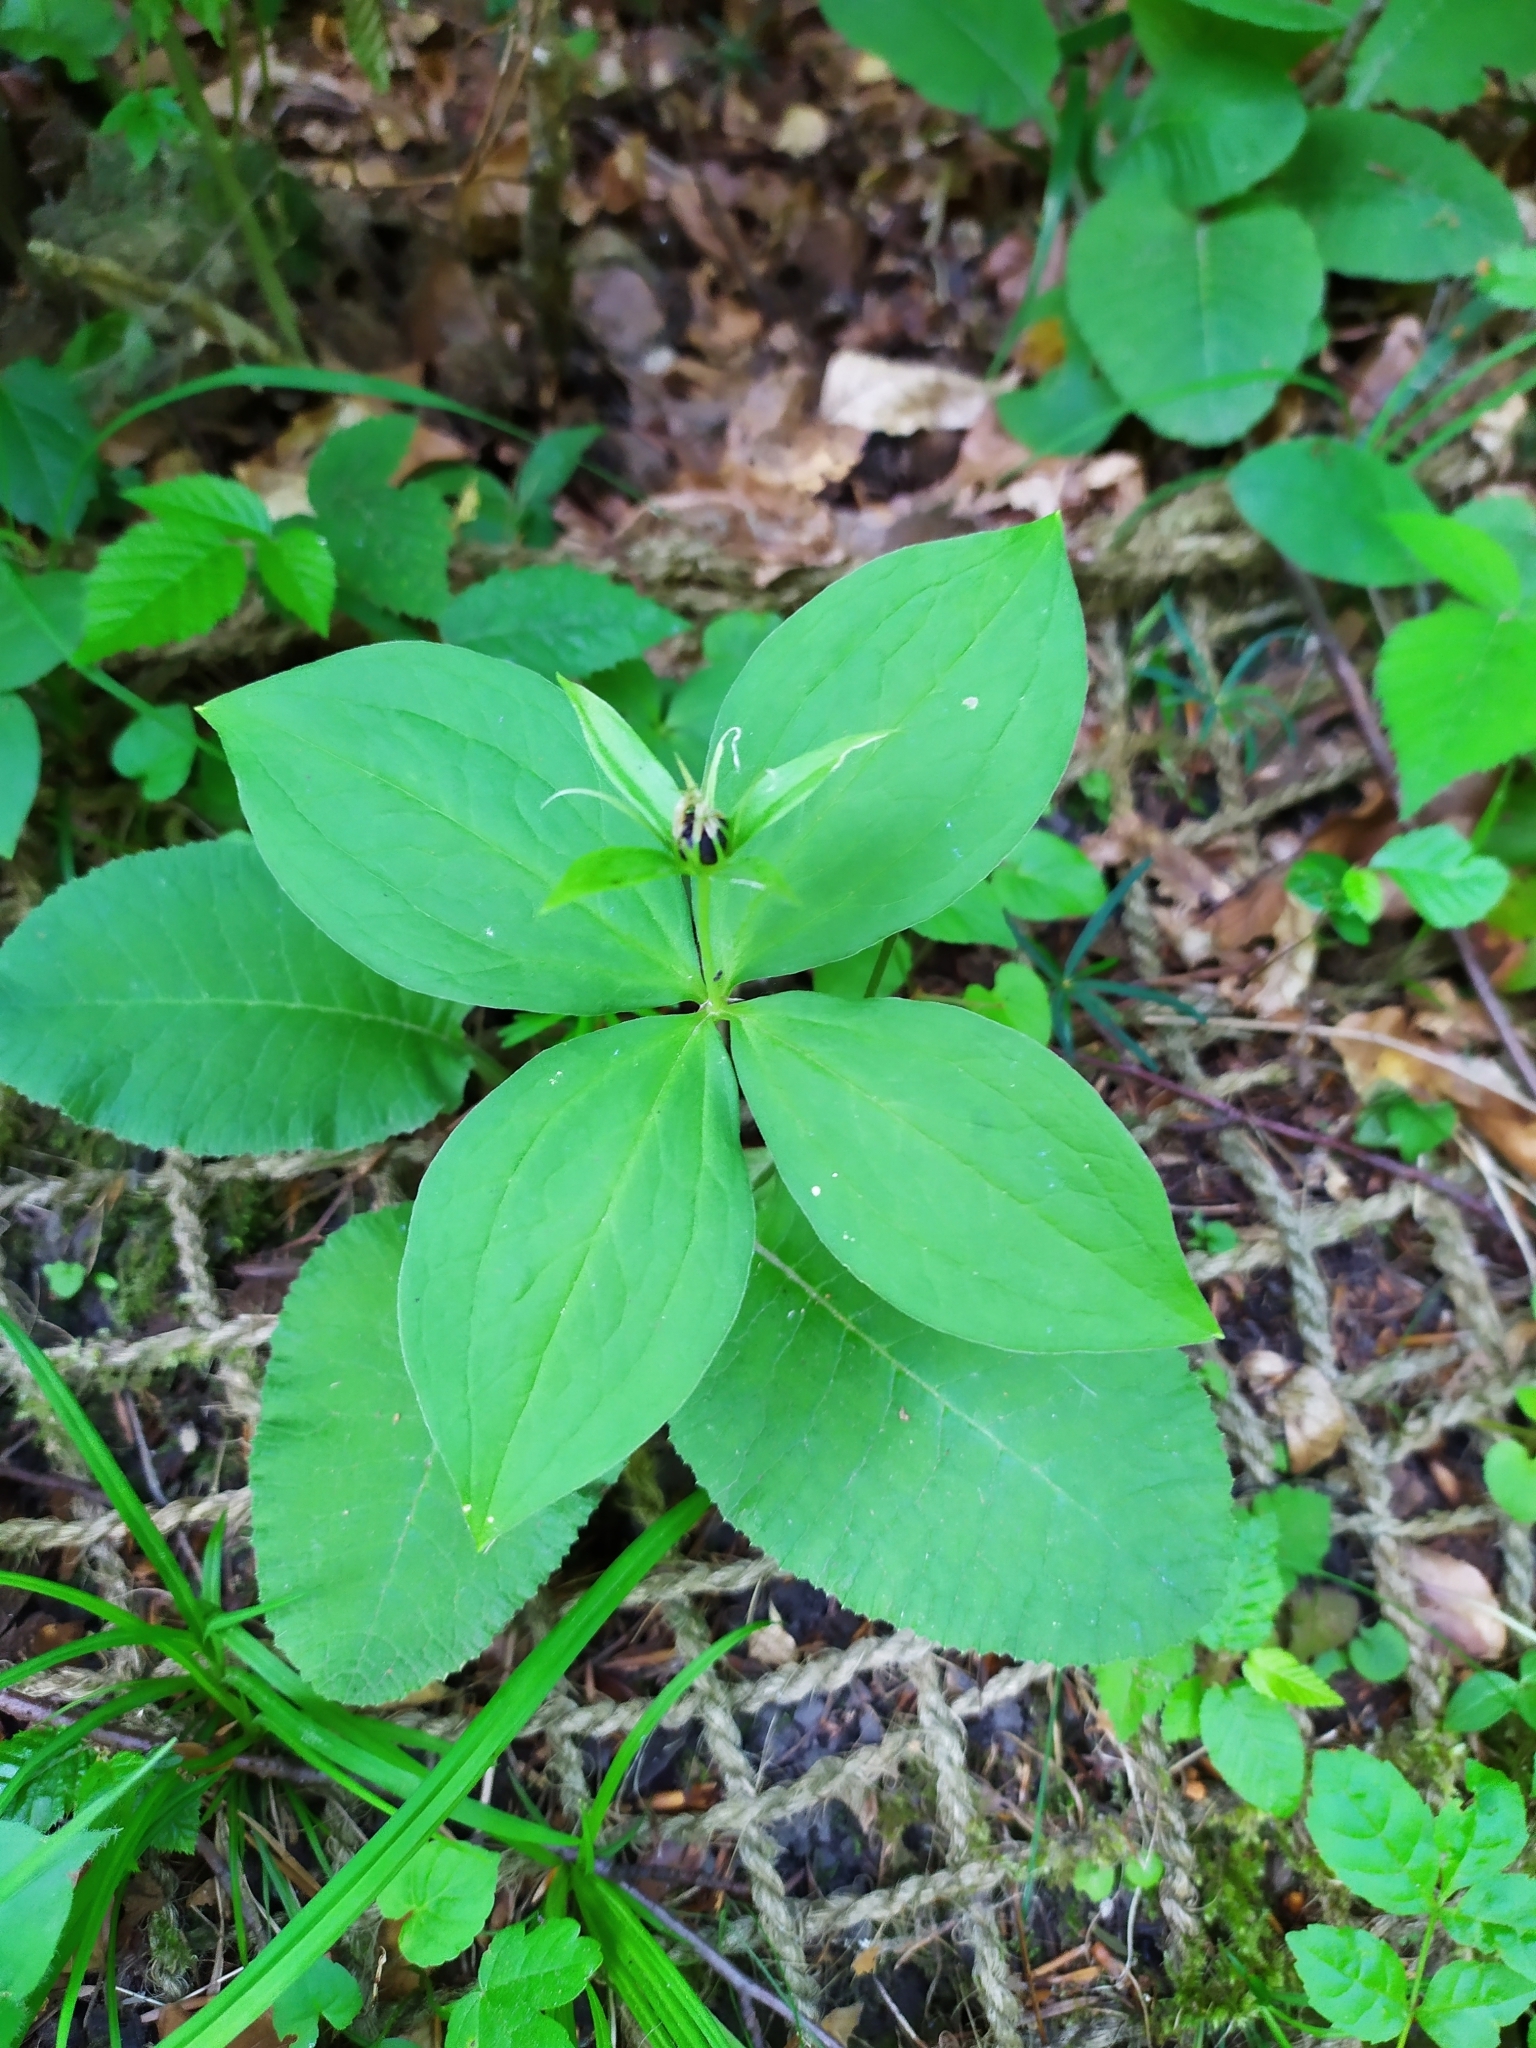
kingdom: Plantae
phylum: Tracheophyta
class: Liliopsida
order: Liliales
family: Melanthiaceae
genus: Paris
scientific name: Paris quadrifolia
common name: Herb-paris
